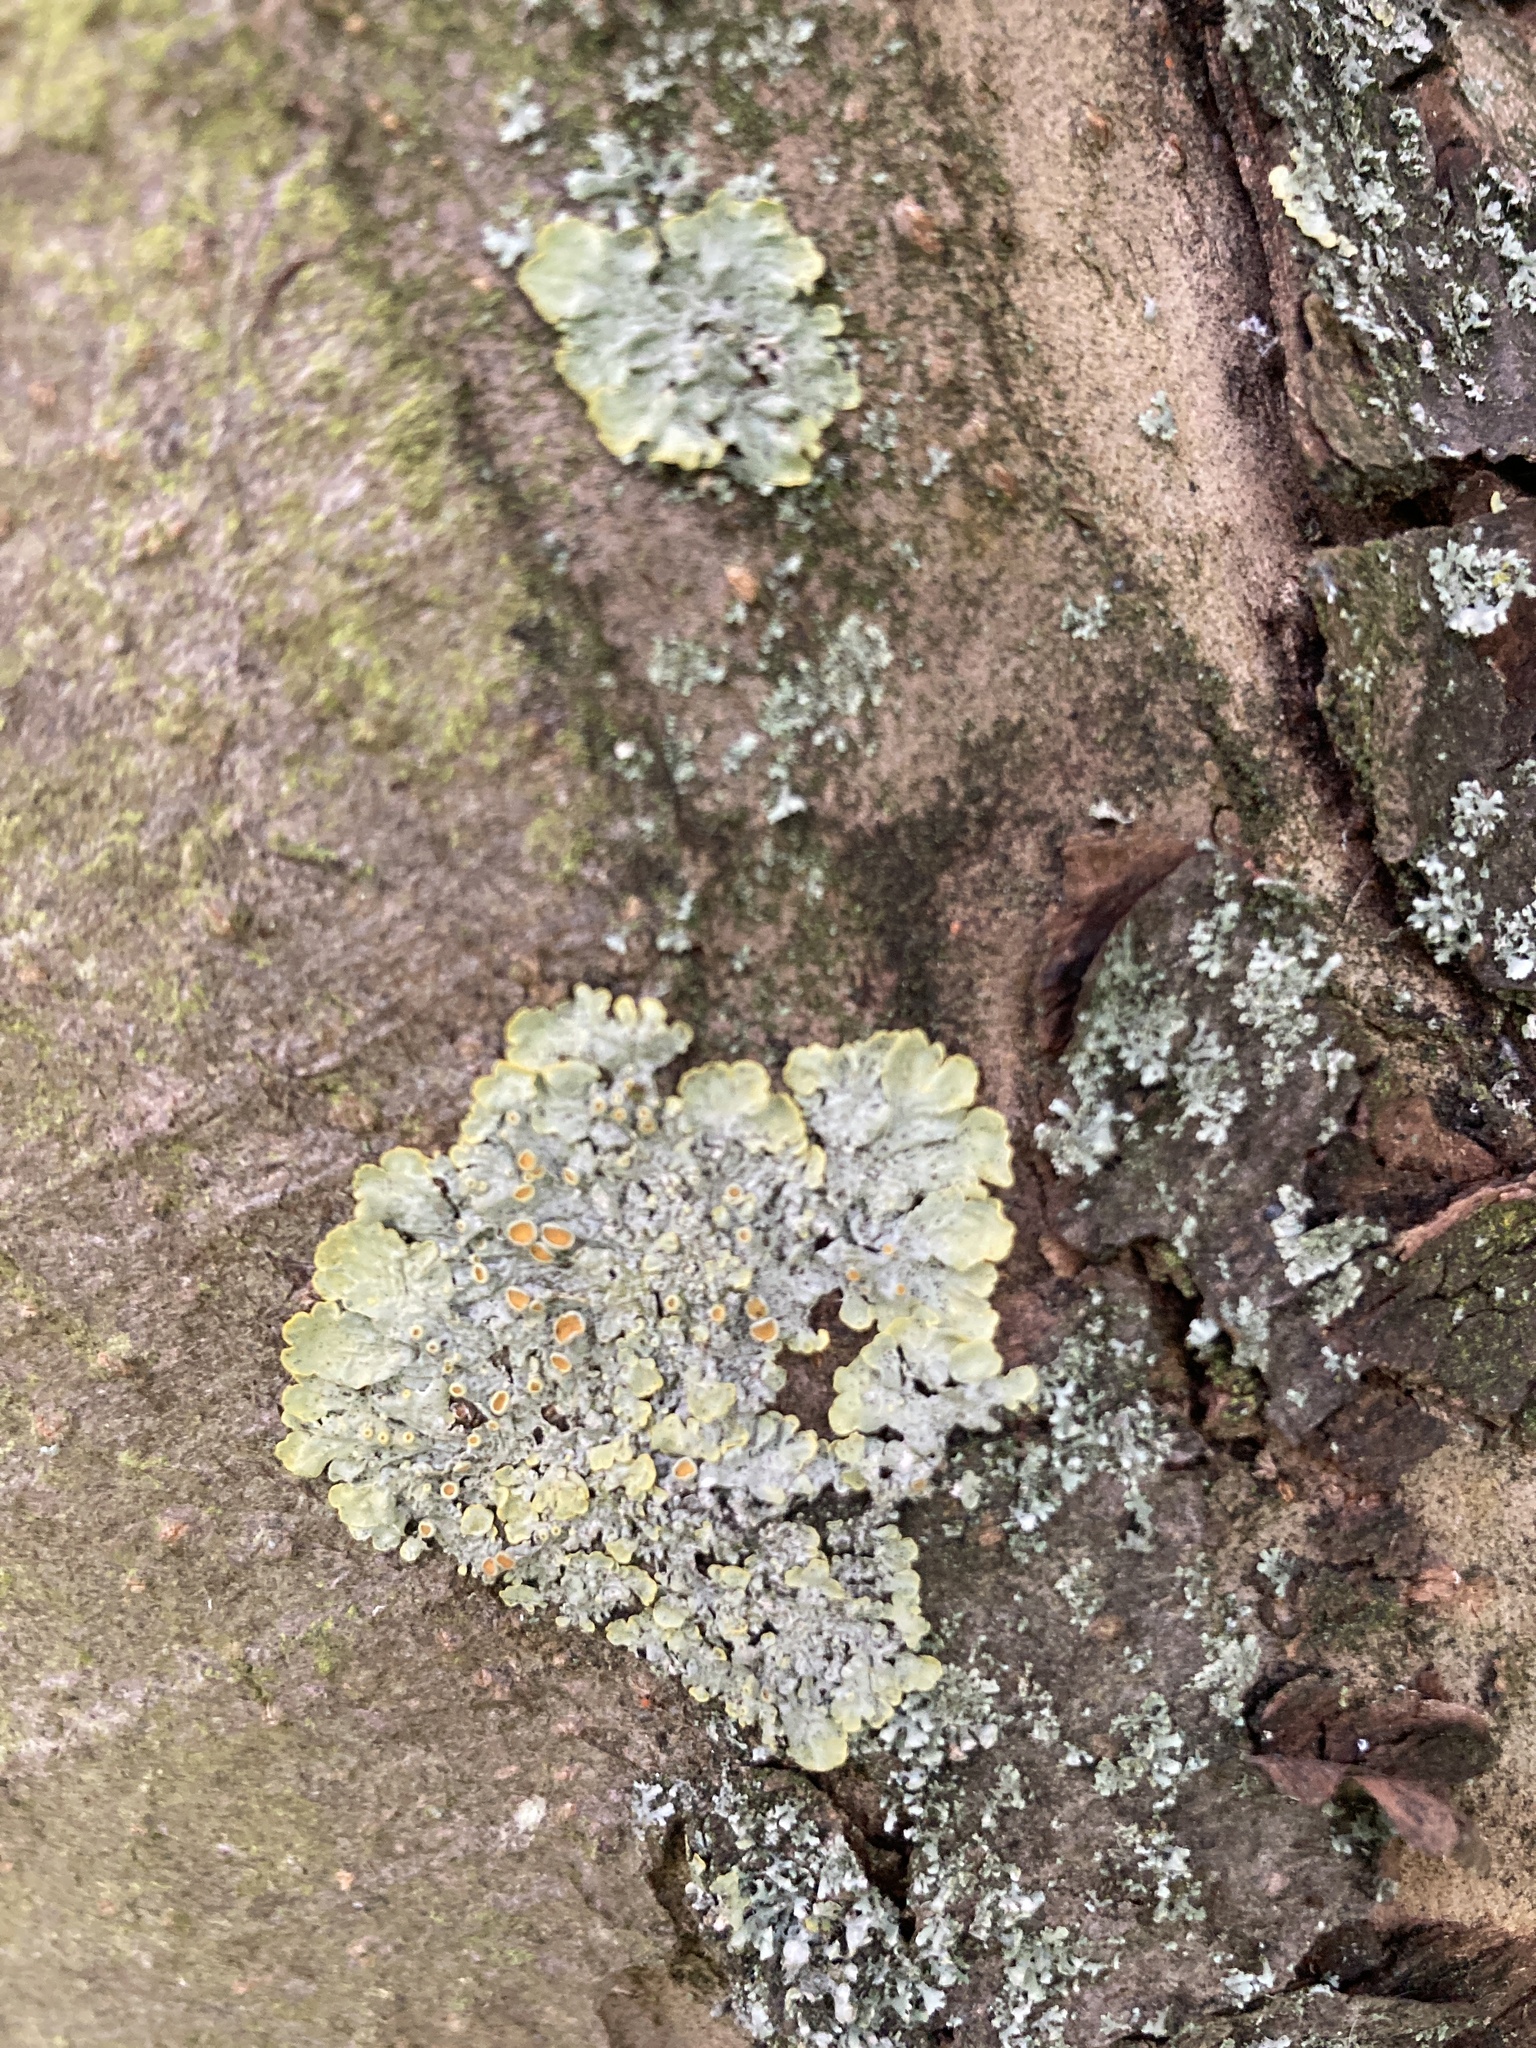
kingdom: Fungi
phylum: Ascomycota
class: Lecanoromycetes
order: Teloschistales
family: Teloschistaceae
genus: Xanthoria
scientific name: Xanthoria parietina
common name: Common orange lichen
